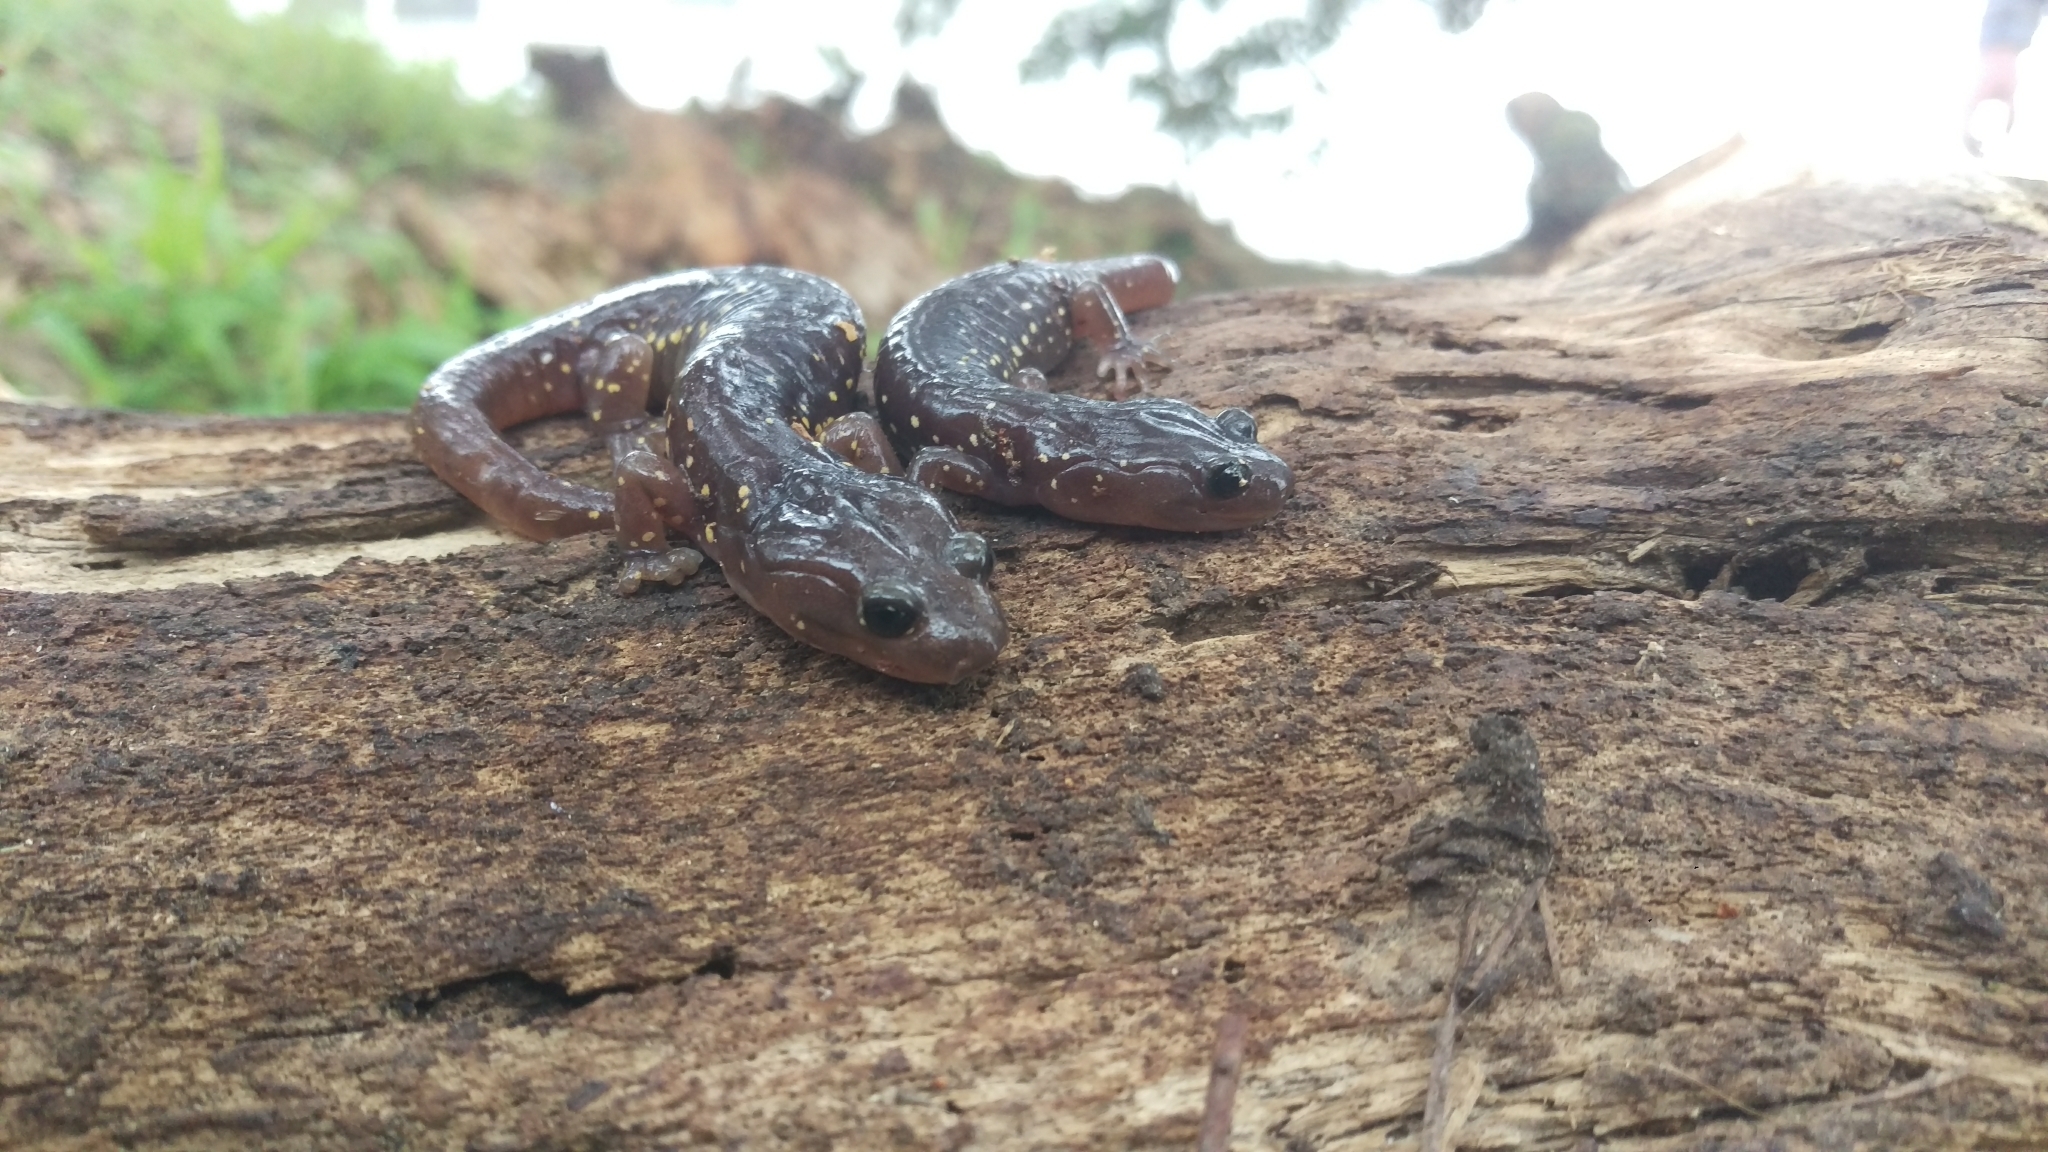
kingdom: Animalia
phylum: Chordata
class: Amphibia
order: Caudata
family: Plethodontidae
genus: Aneides
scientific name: Aneides lugubris
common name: Arboreal salamander
